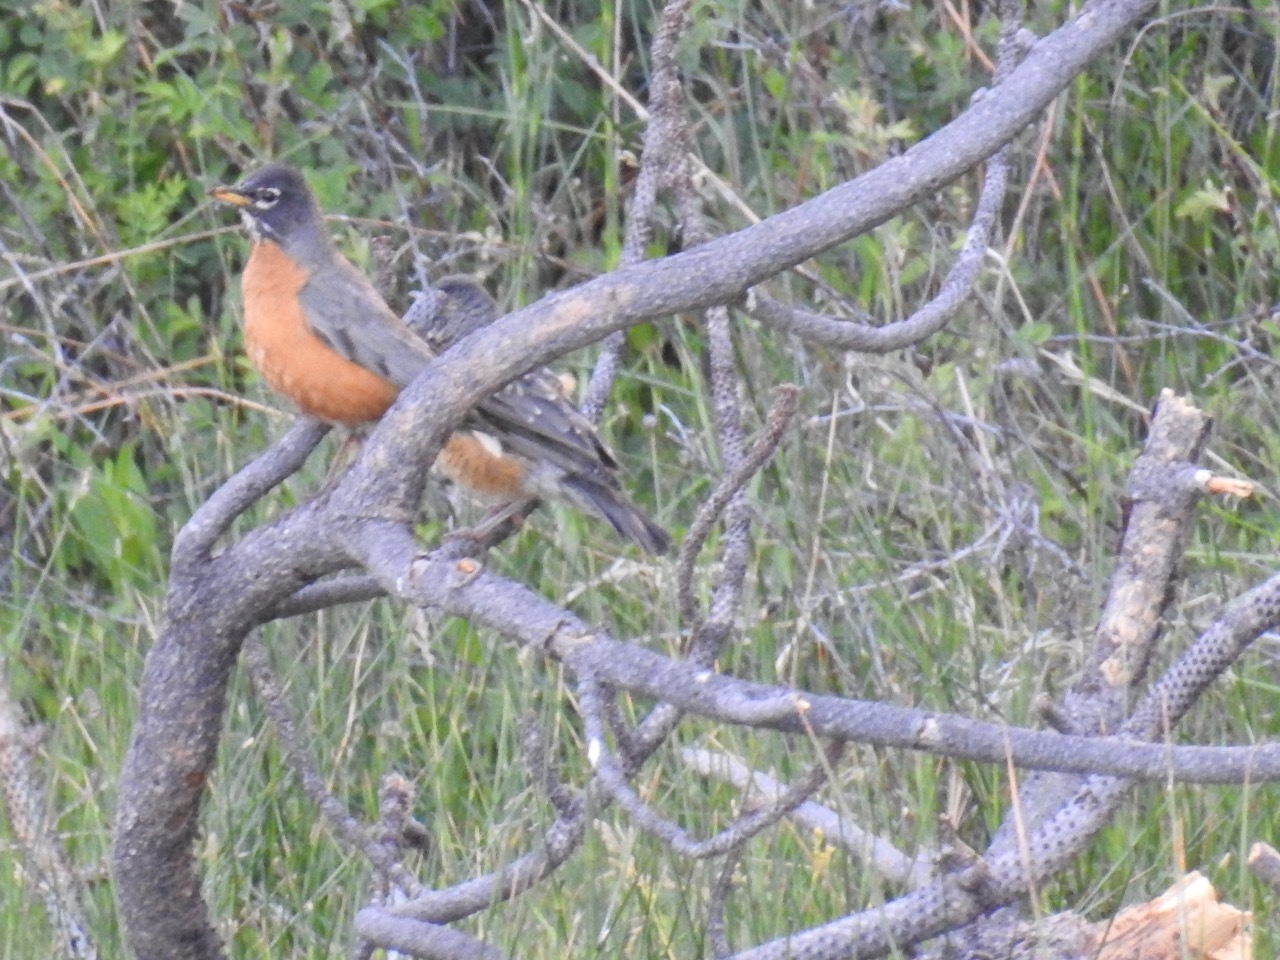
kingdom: Animalia
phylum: Chordata
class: Aves
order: Passeriformes
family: Turdidae
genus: Turdus
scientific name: Turdus migratorius
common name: American robin
